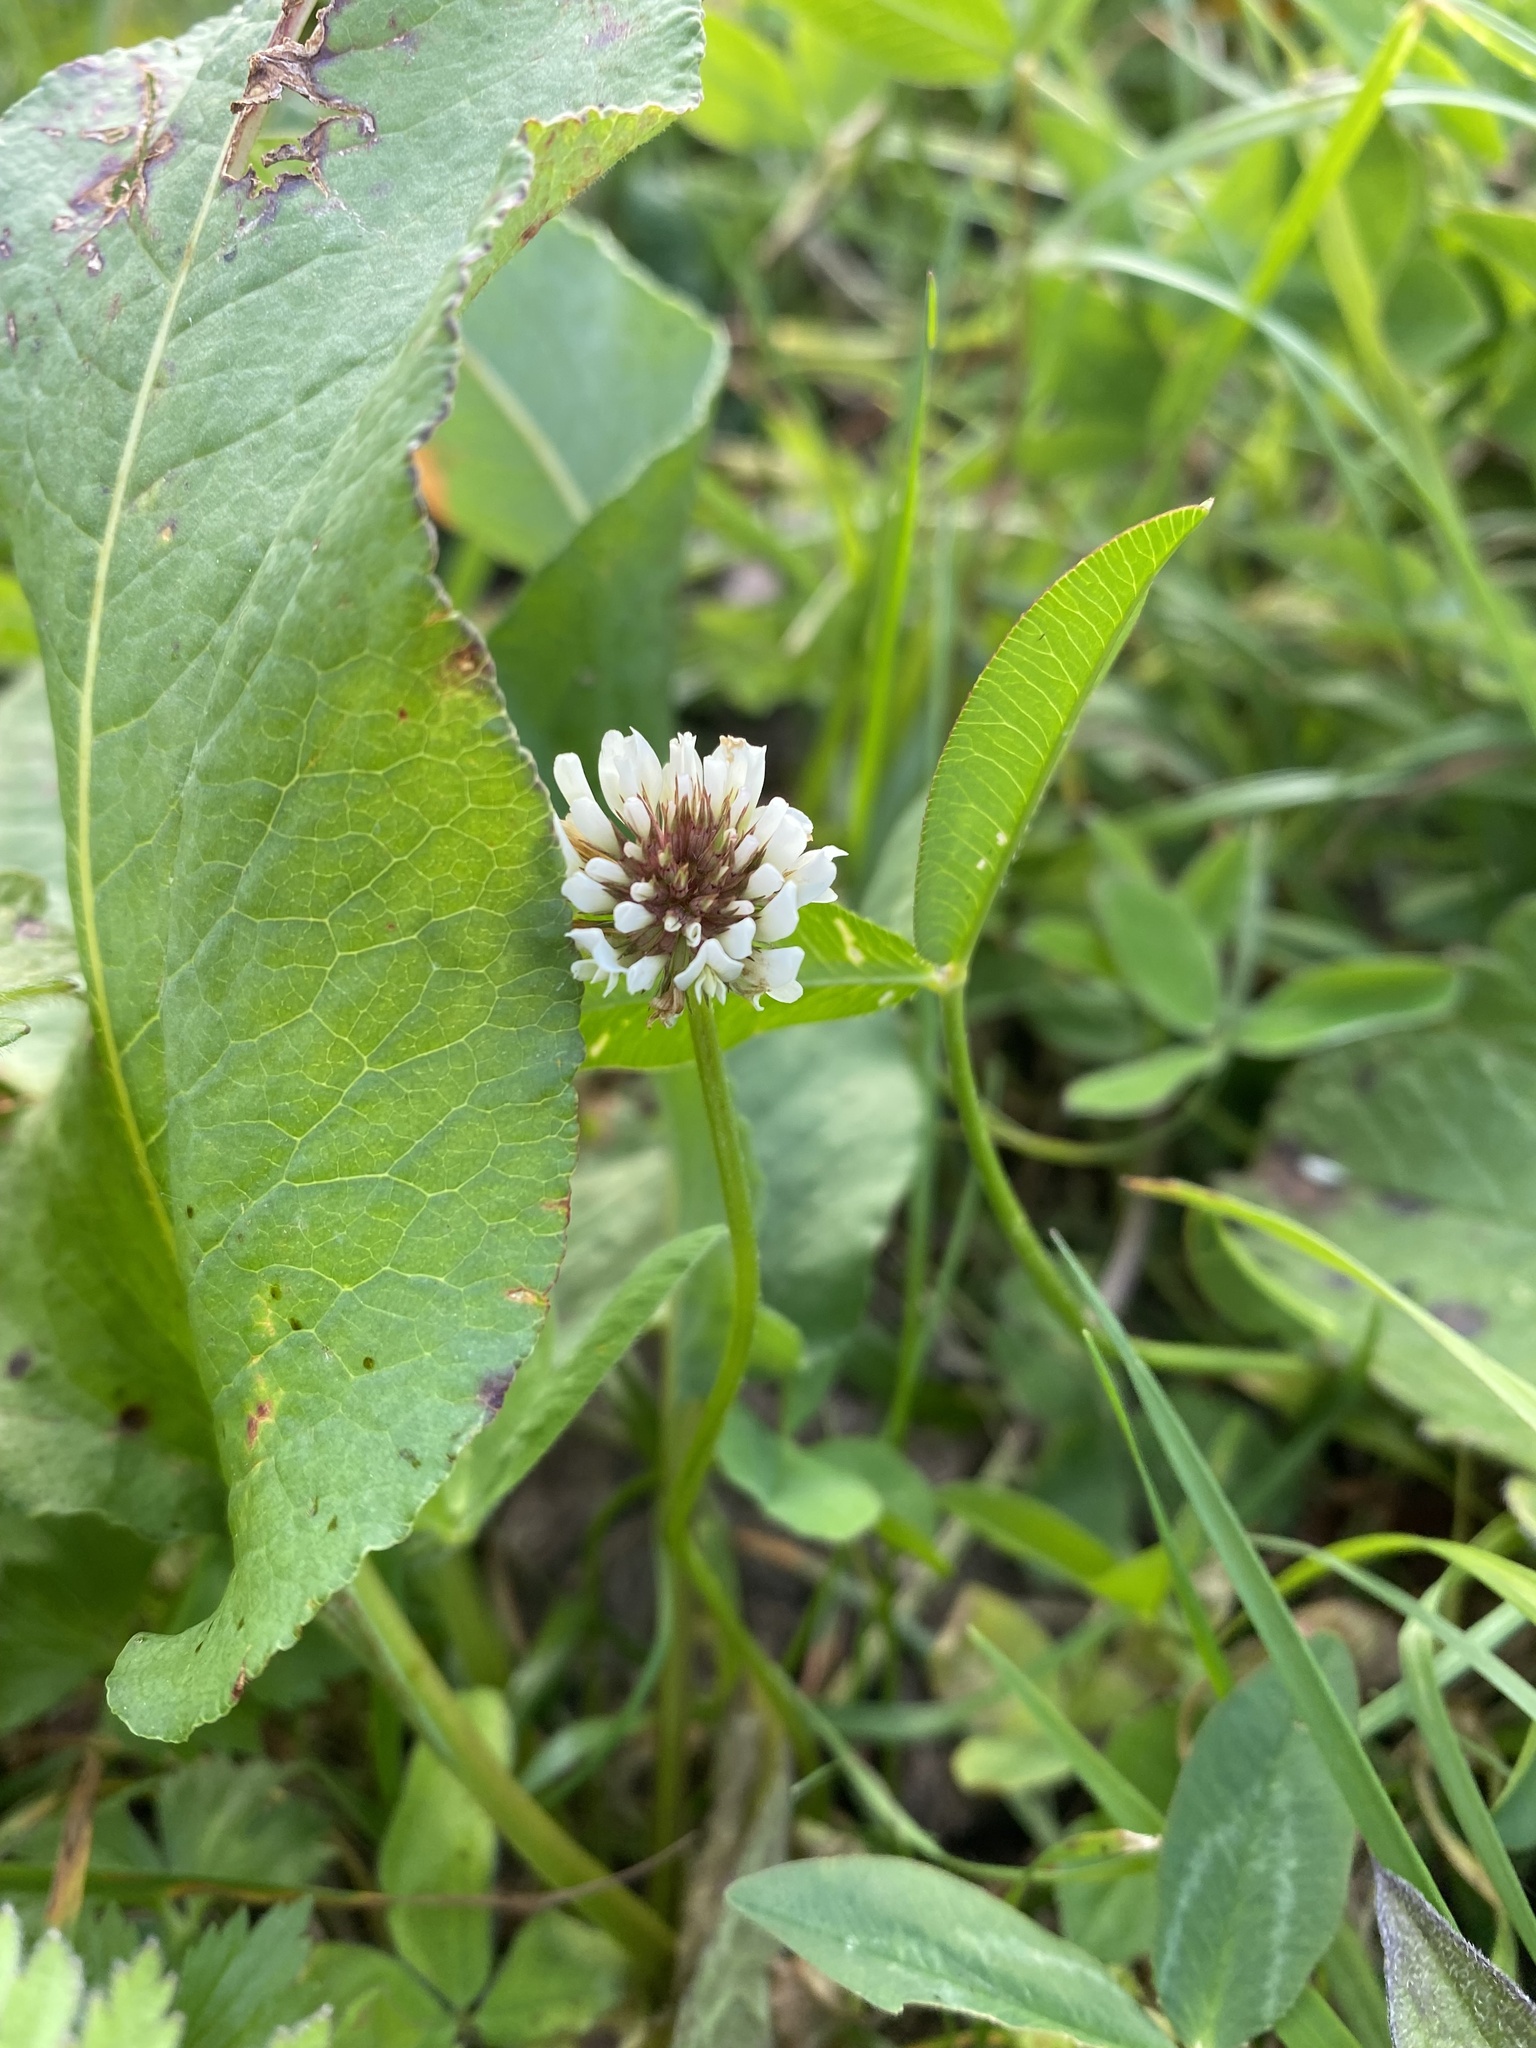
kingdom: Plantae
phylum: Tracheophyta
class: Magnoliopsida
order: Fabales
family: Fabaceae
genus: Trifolium
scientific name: Trifolium repens
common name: White clover
